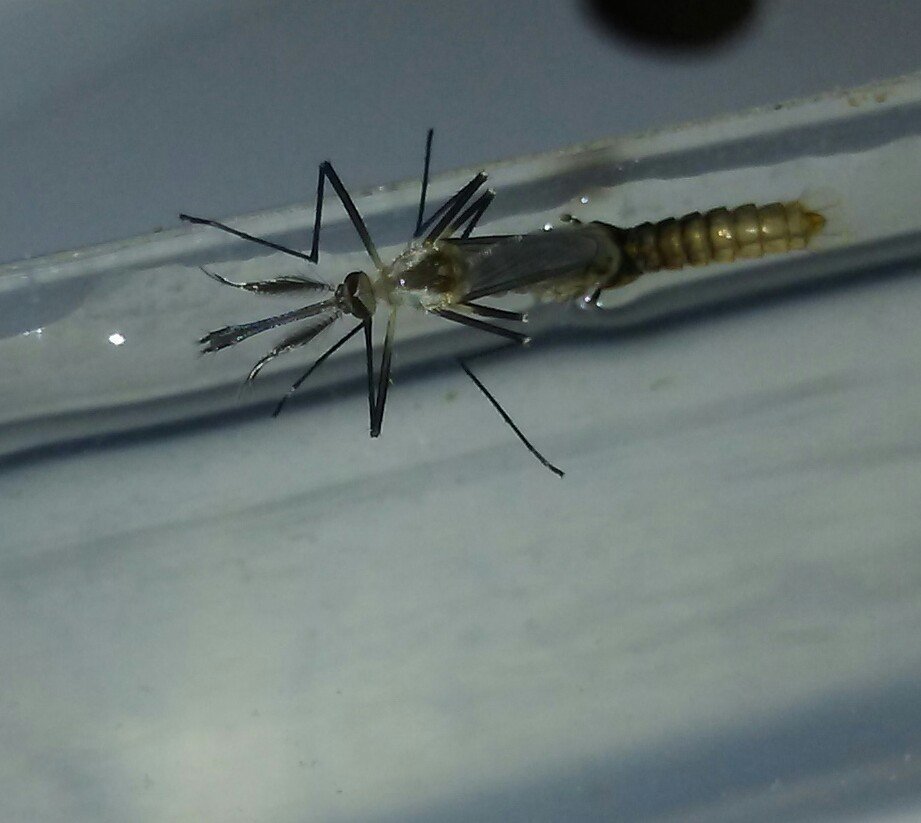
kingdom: Animalia
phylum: Arthropoda
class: Insecta
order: Diptera
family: Culicidae
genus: Aedes
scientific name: Aedes triseriatus
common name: Eastern treehole mosquito
